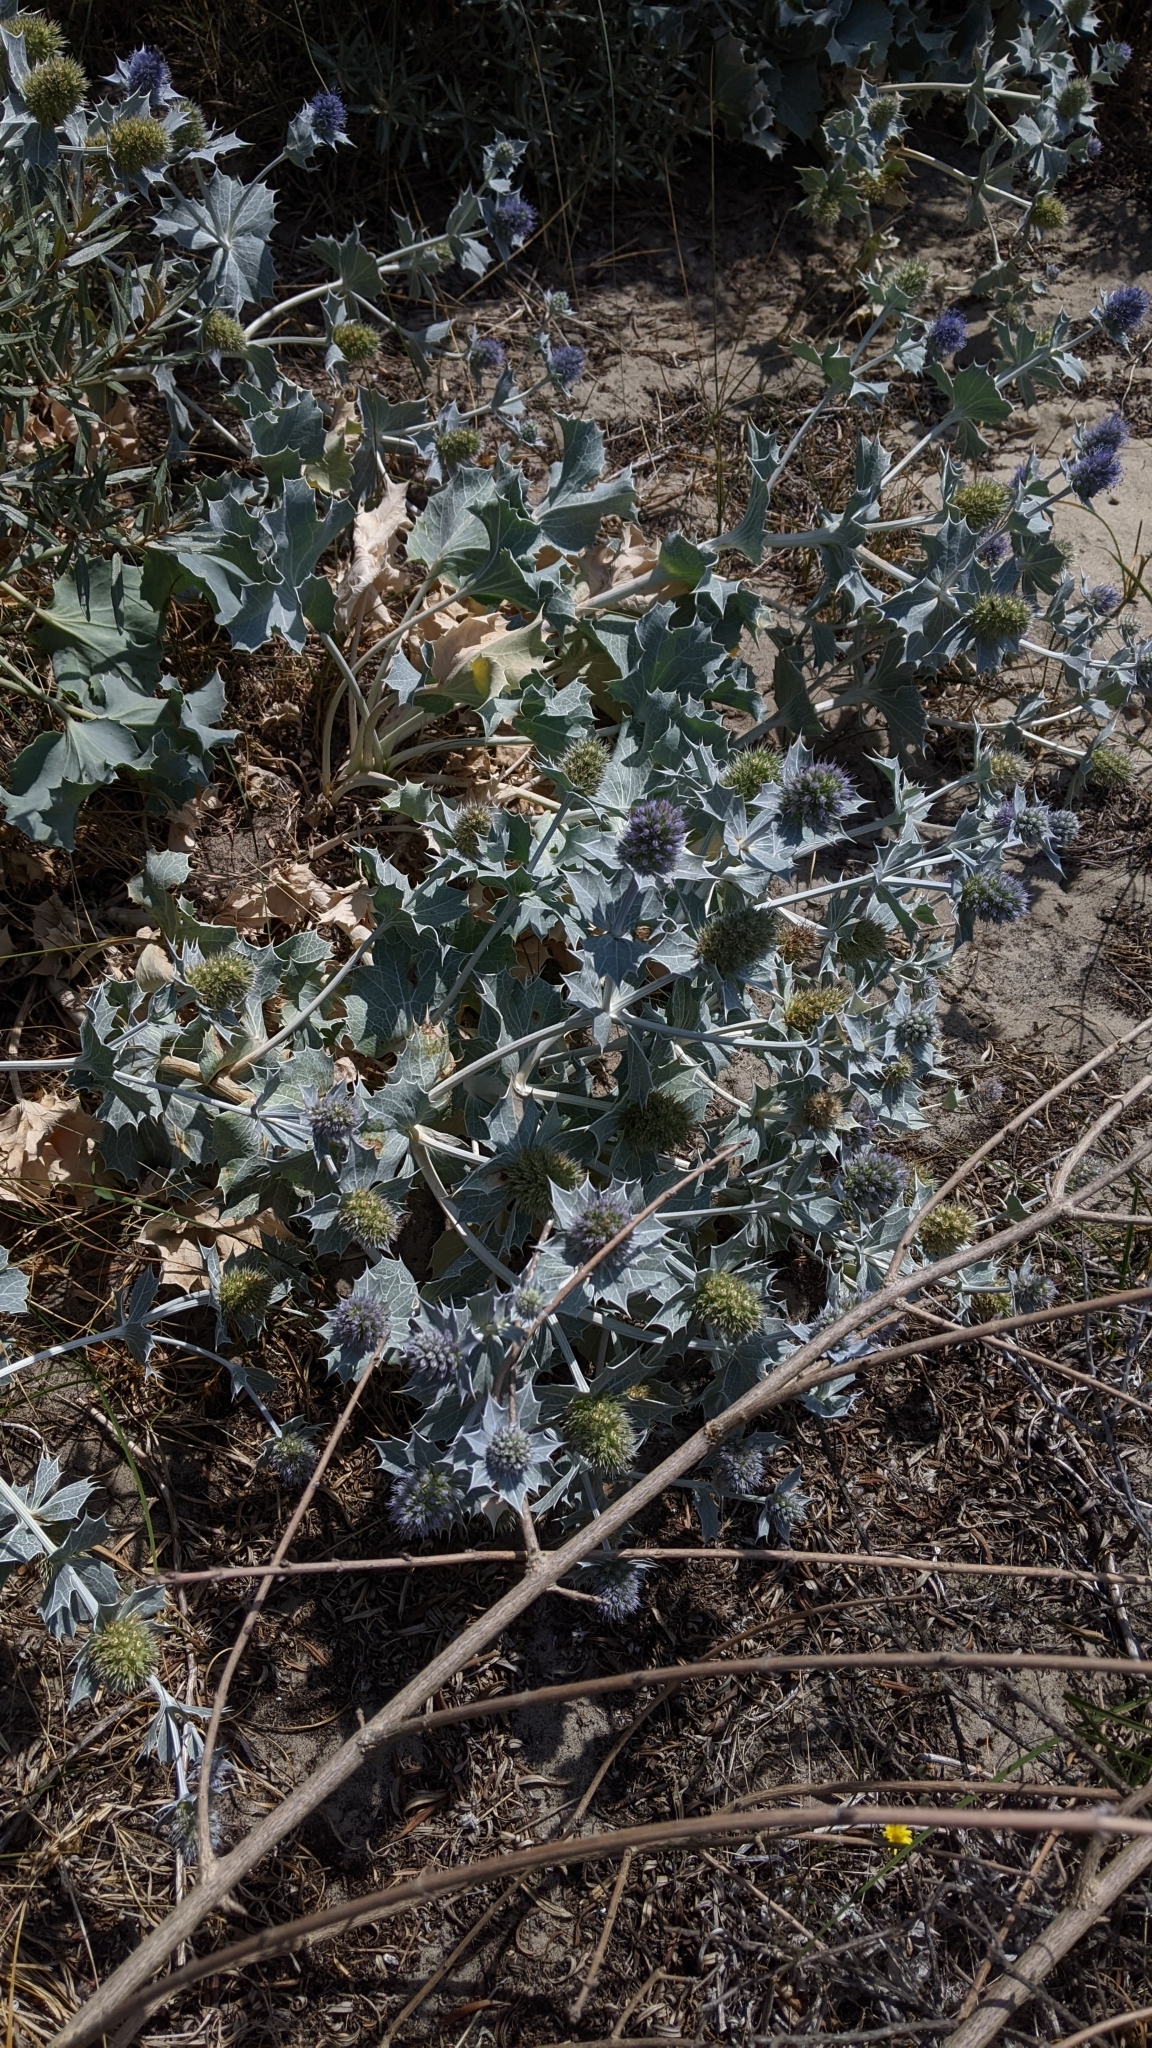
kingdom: Plantae
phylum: Tracheophyta
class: Magnoliopsida
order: Apiales
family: Apiaceae
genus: Eryngium
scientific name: Eryngium maritimum
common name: Sea-holly
